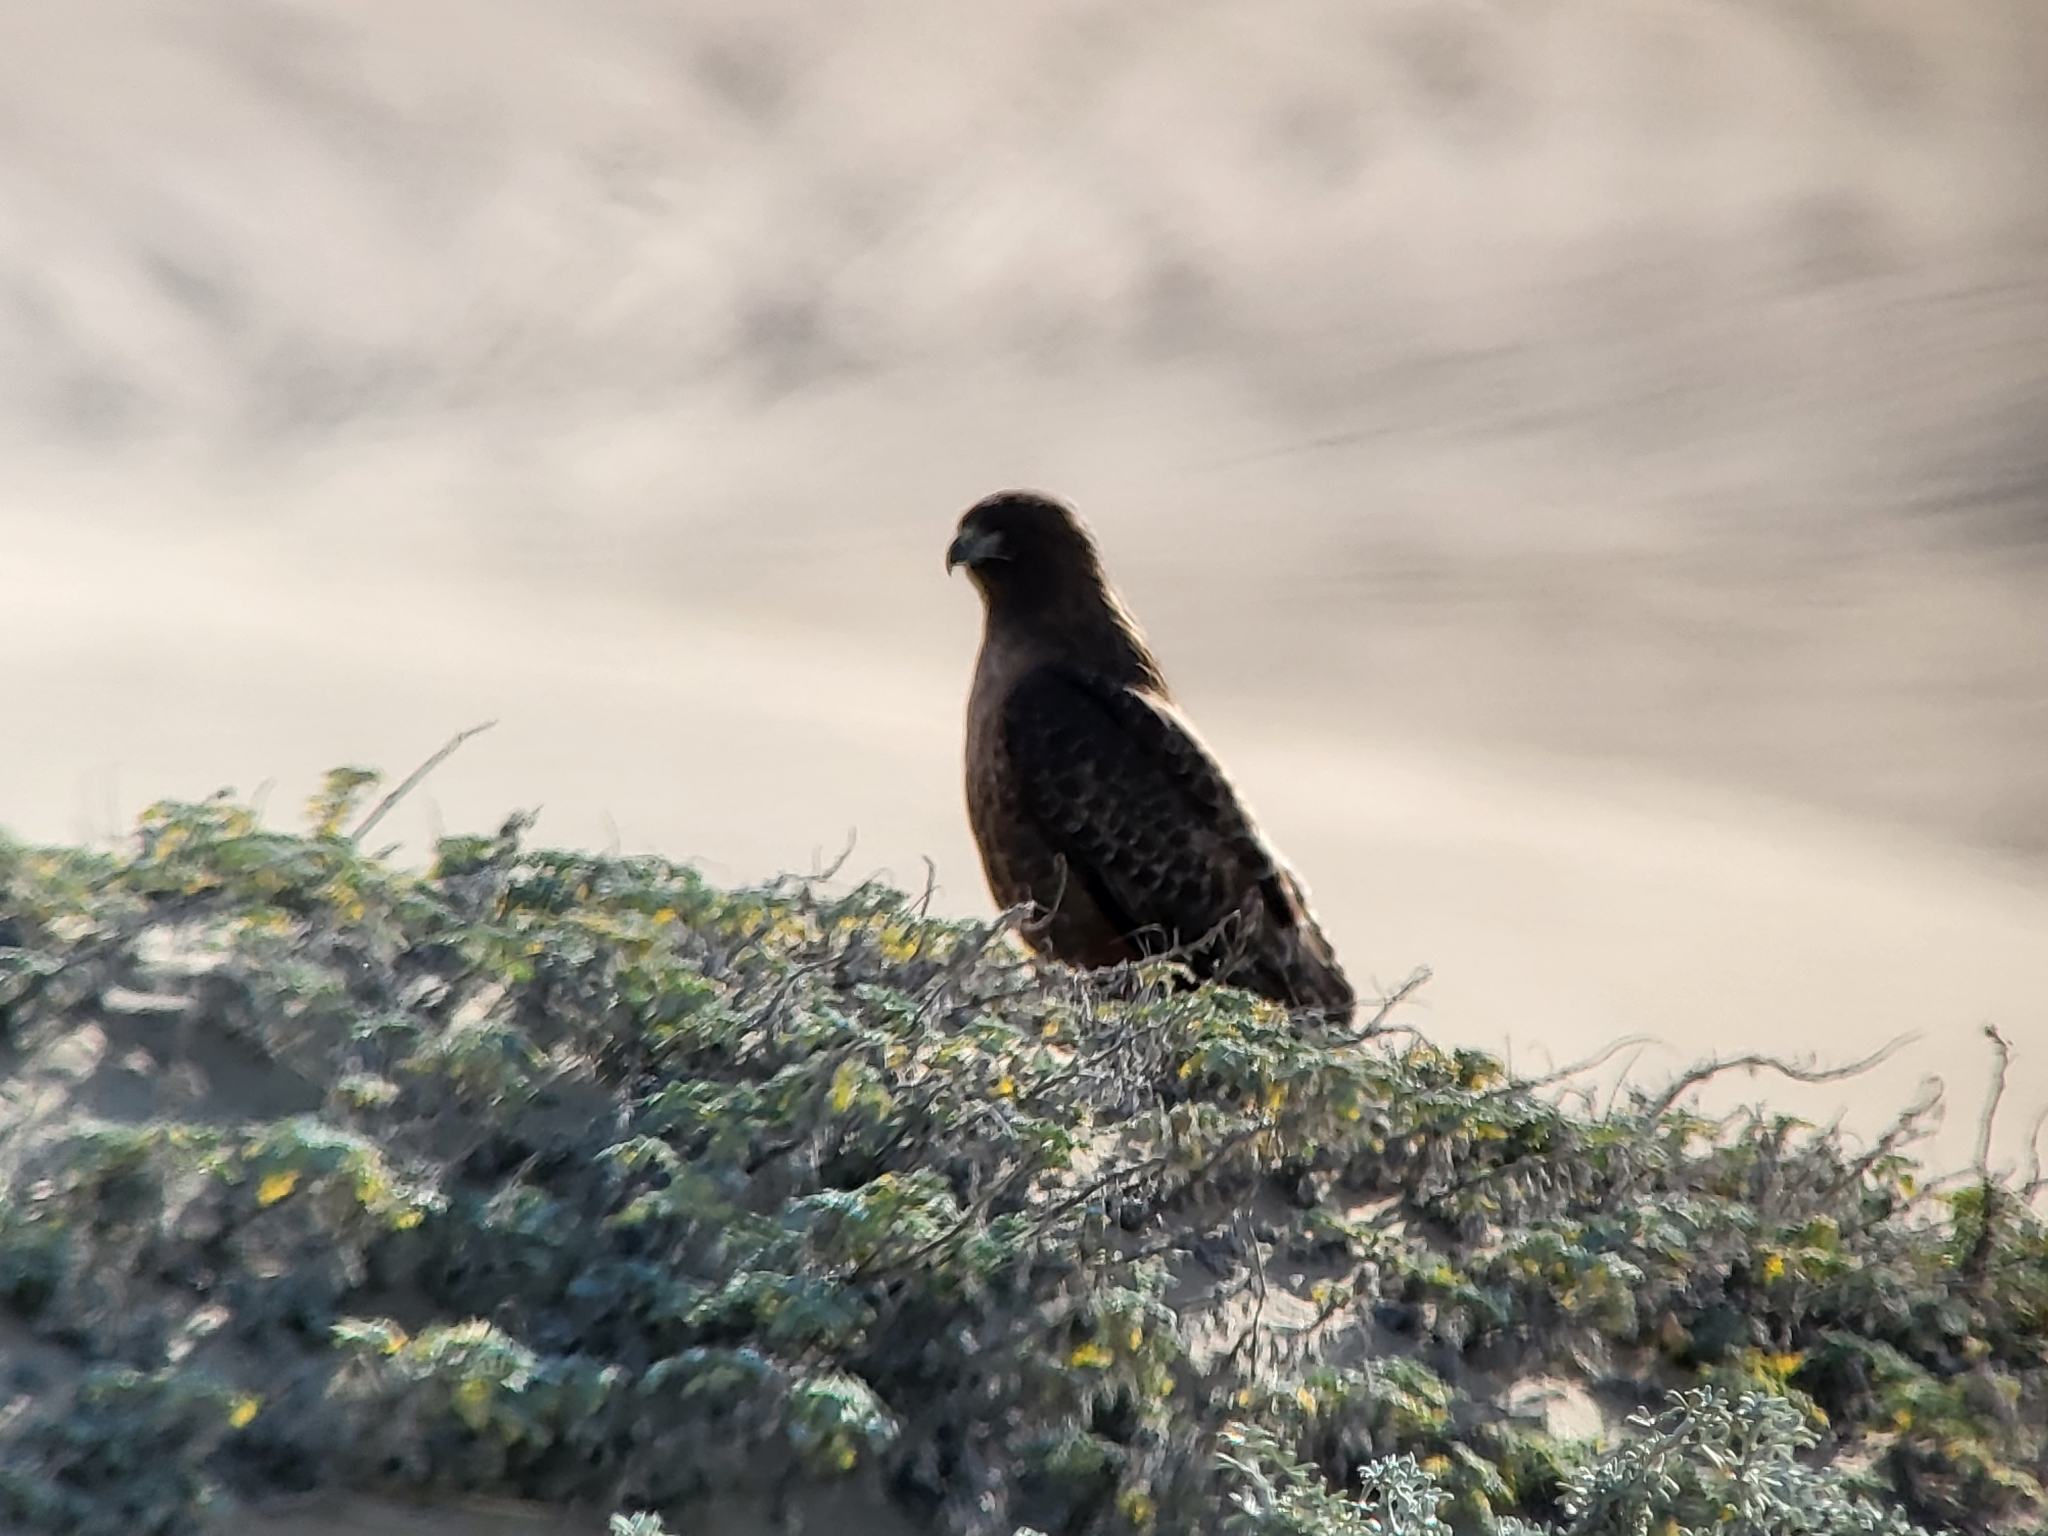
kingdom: Animalia
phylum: Chordata
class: Aves
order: Accipitriformes
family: Accipitridae
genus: Buteo
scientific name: Buteo jamaicensis
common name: Red-tailed hawk
